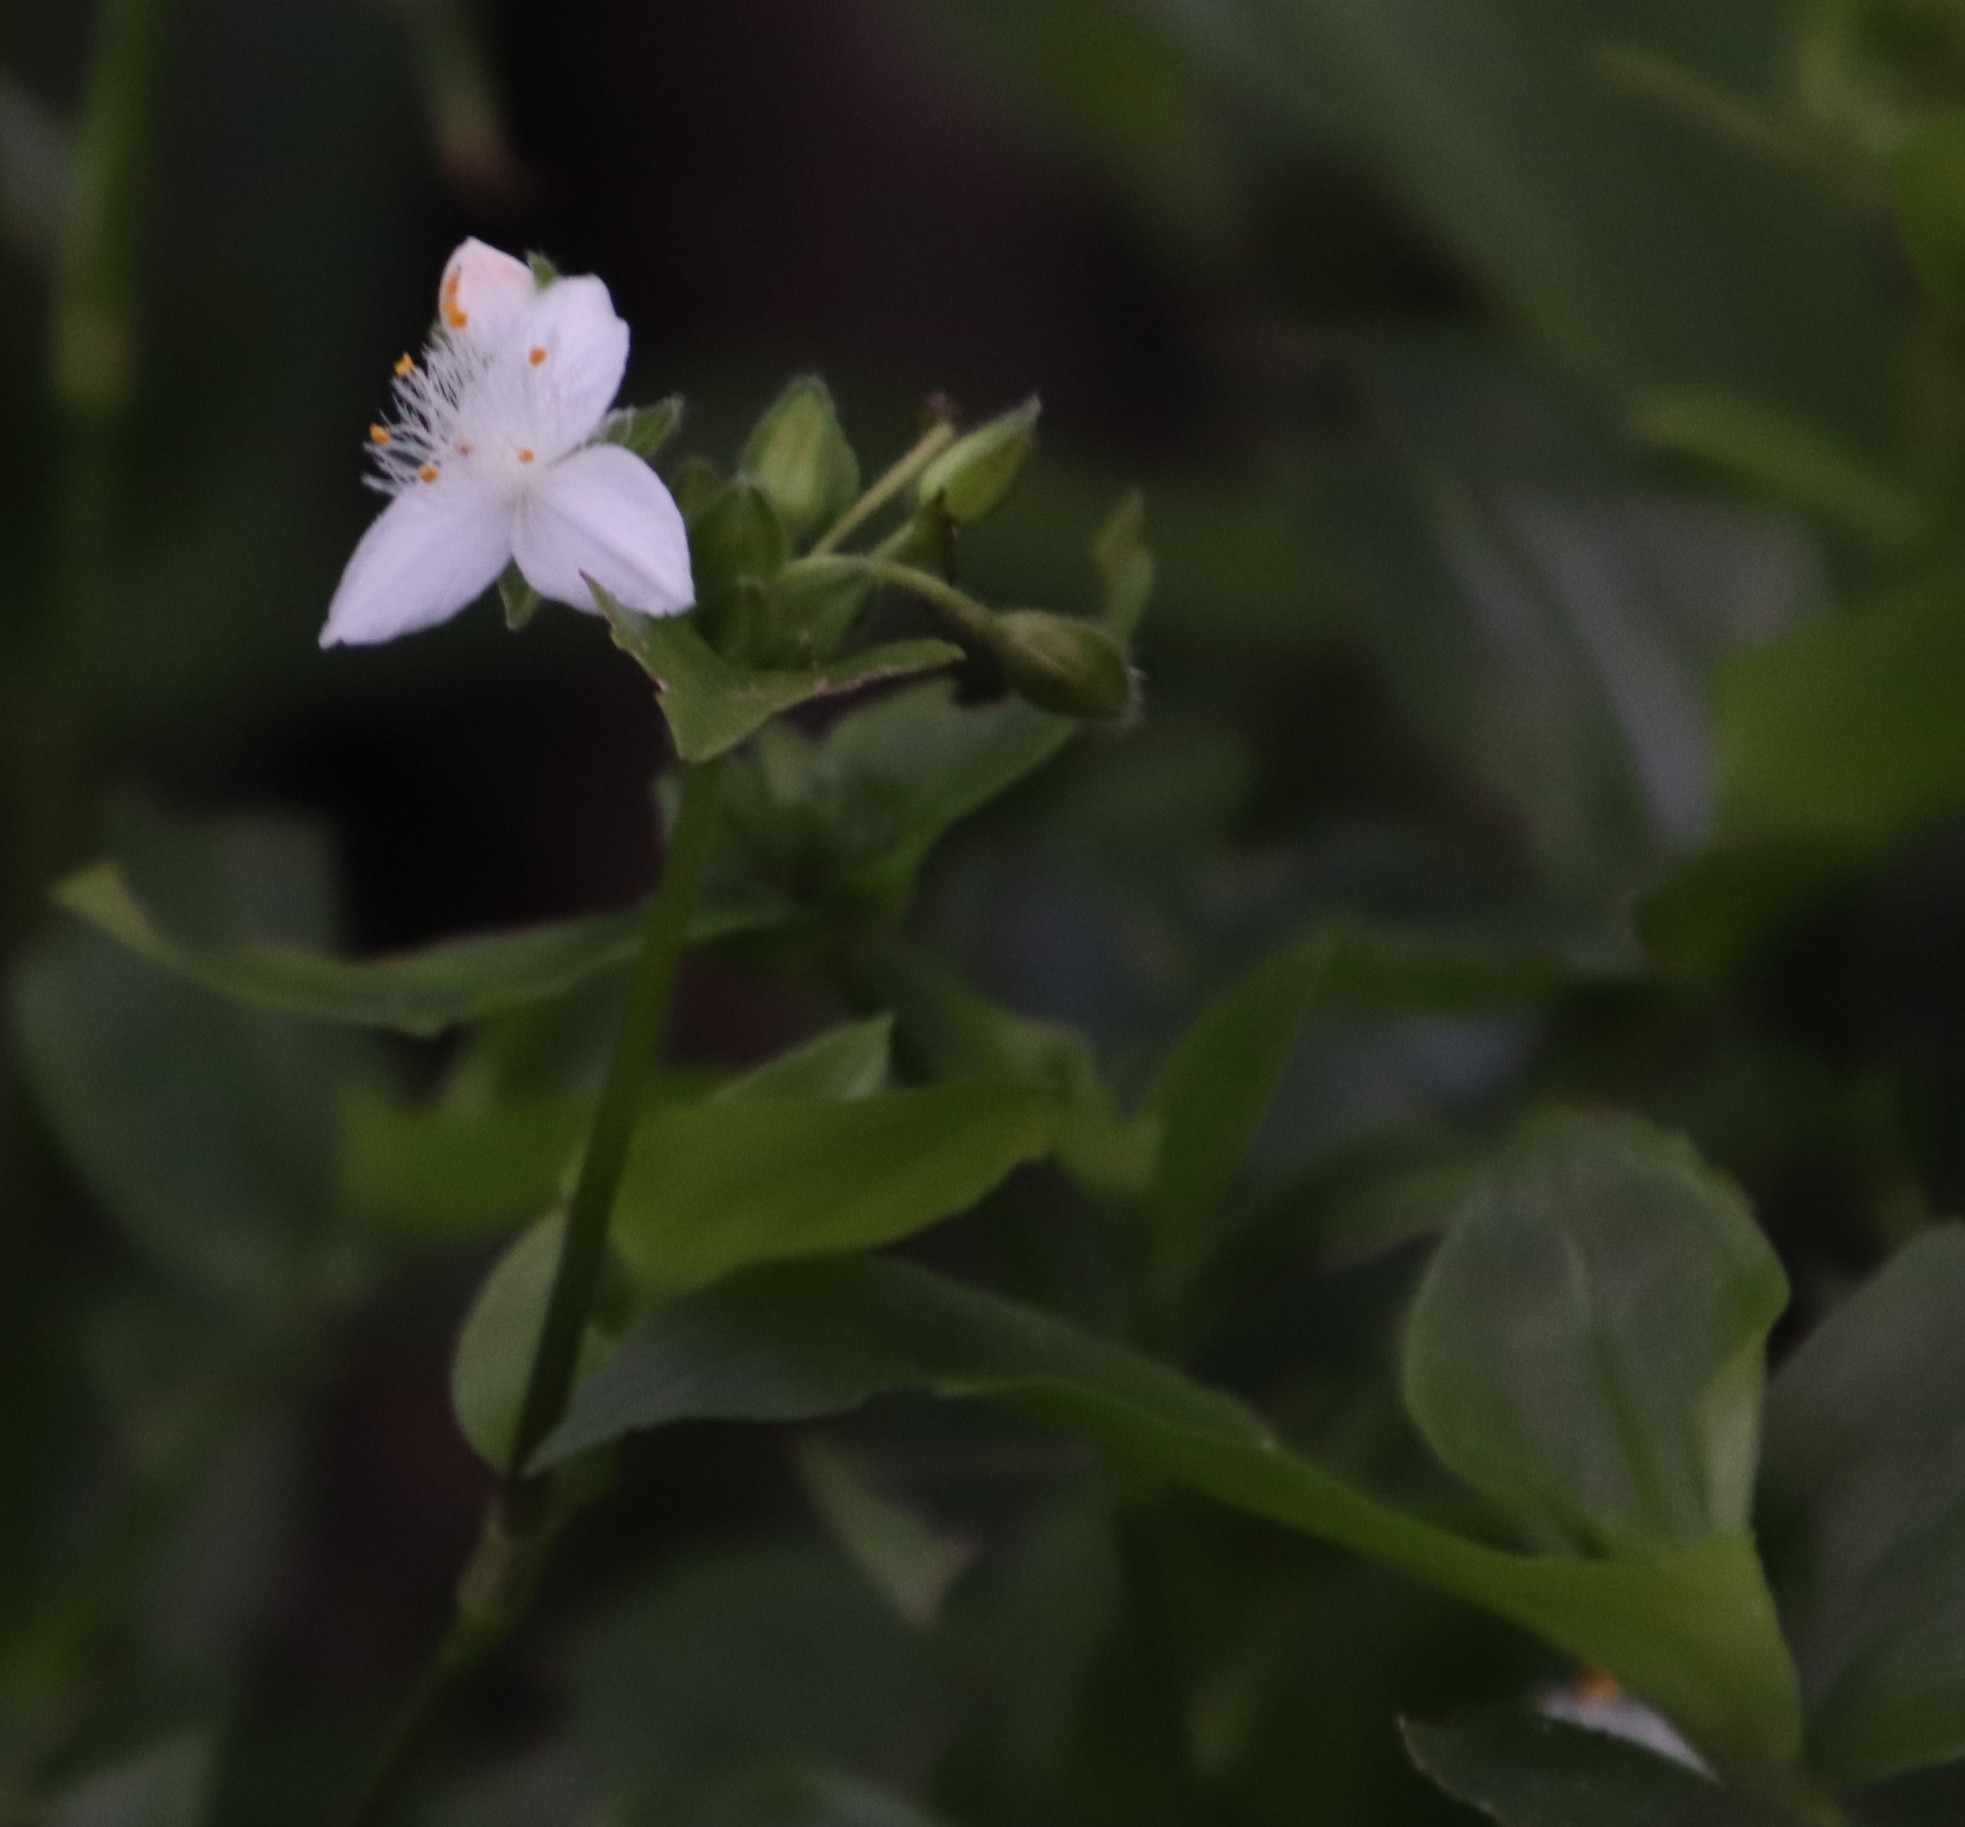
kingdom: Plantae
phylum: Tracheophyta
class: Liliopsida
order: Commelinales
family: Commelinaceae
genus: Tradescantia
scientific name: Tradescantia fluminensis
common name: Wandering-jew
